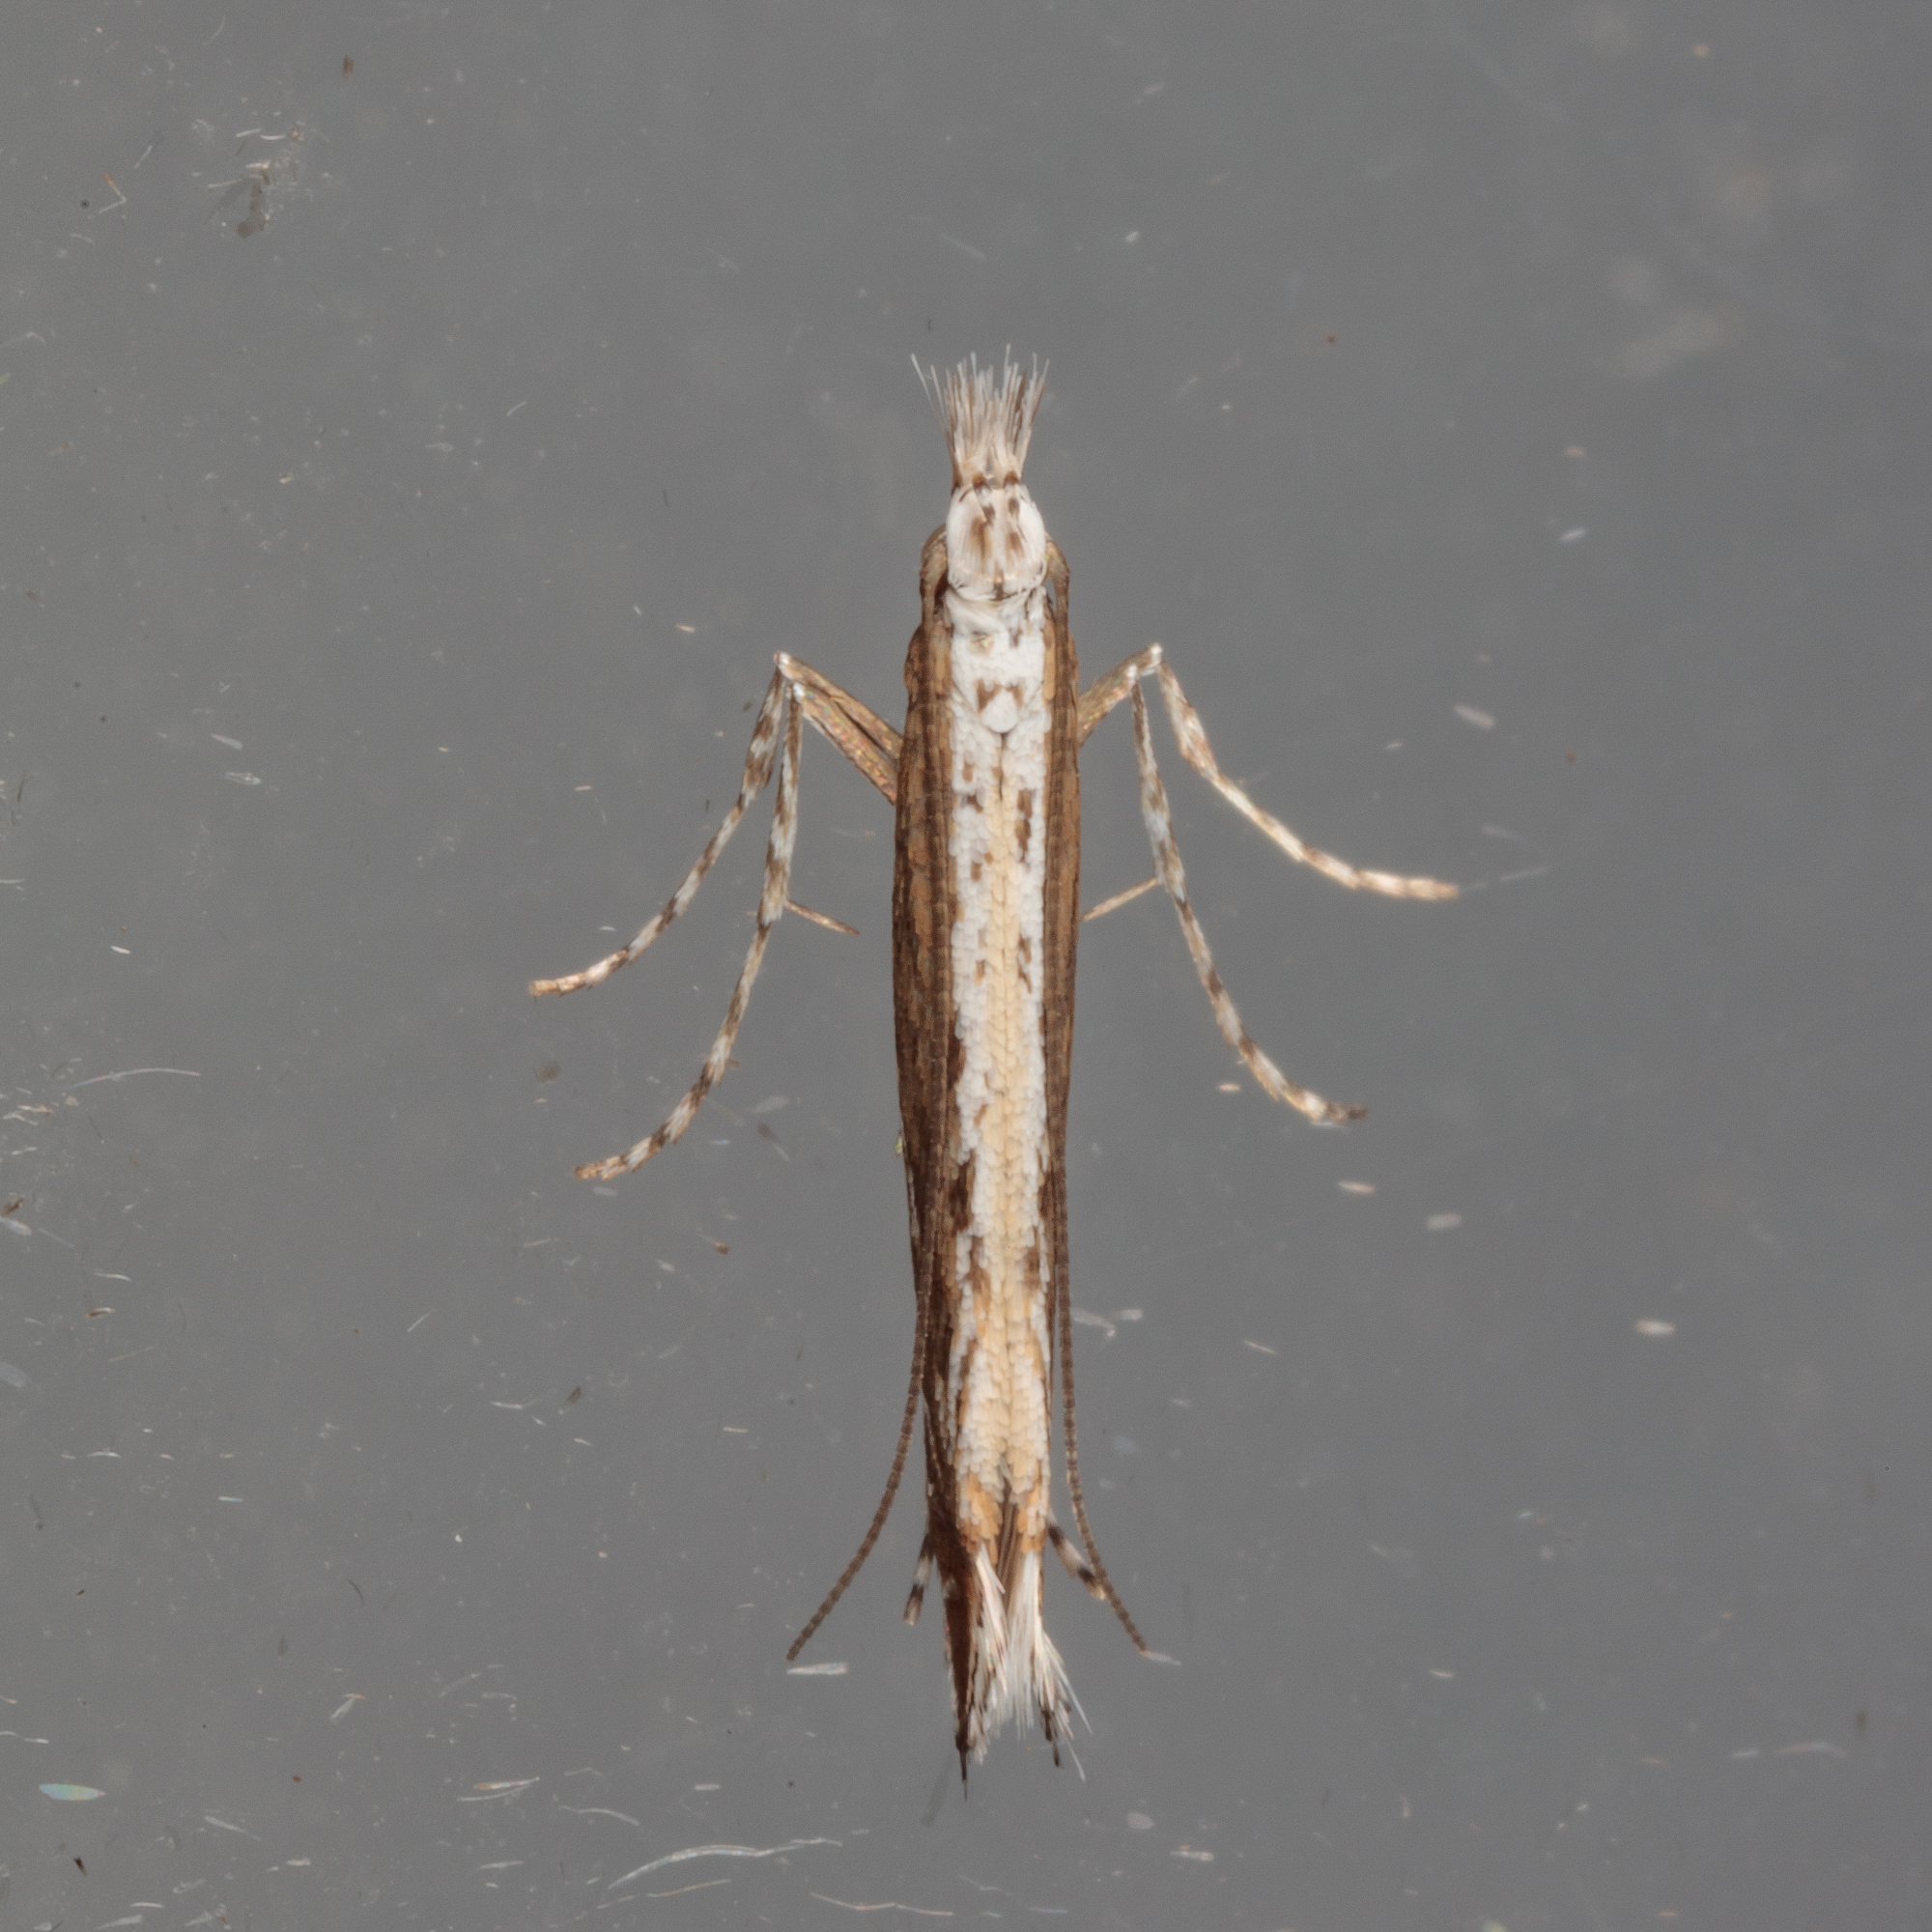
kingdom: Plantae
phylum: Rhodophyta
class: Florideophyceae
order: Gracilariales
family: Gracilariaceae
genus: Gracilaria
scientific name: Gracilaria
